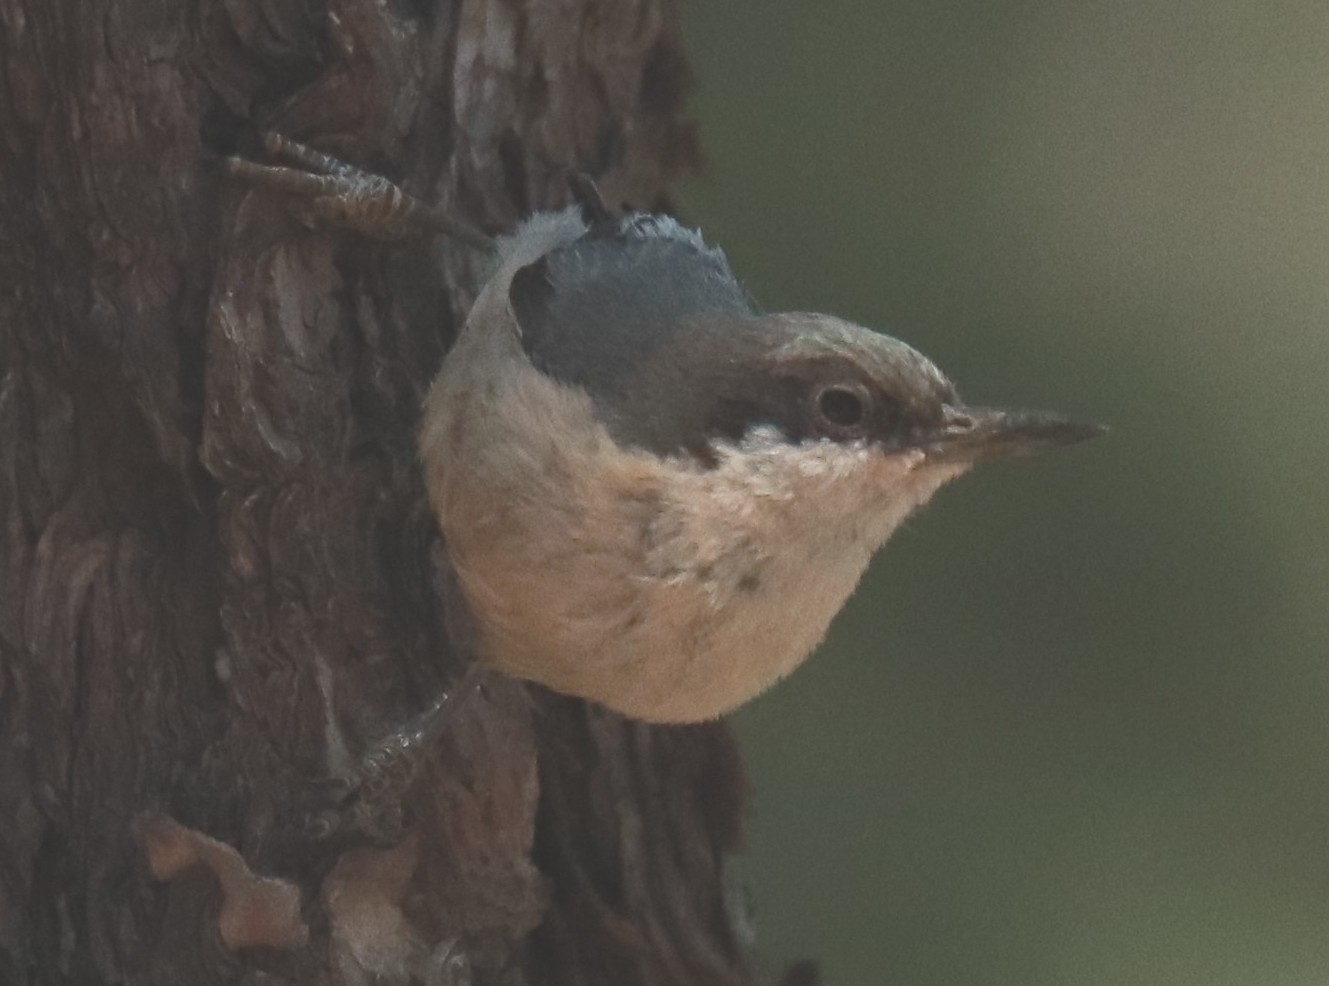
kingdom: Animalia
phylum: Chordata
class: Aves
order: Passeriformes
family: Sittidae
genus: Sitta
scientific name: Sitta pygmaea
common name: Pygmy nuthatch
